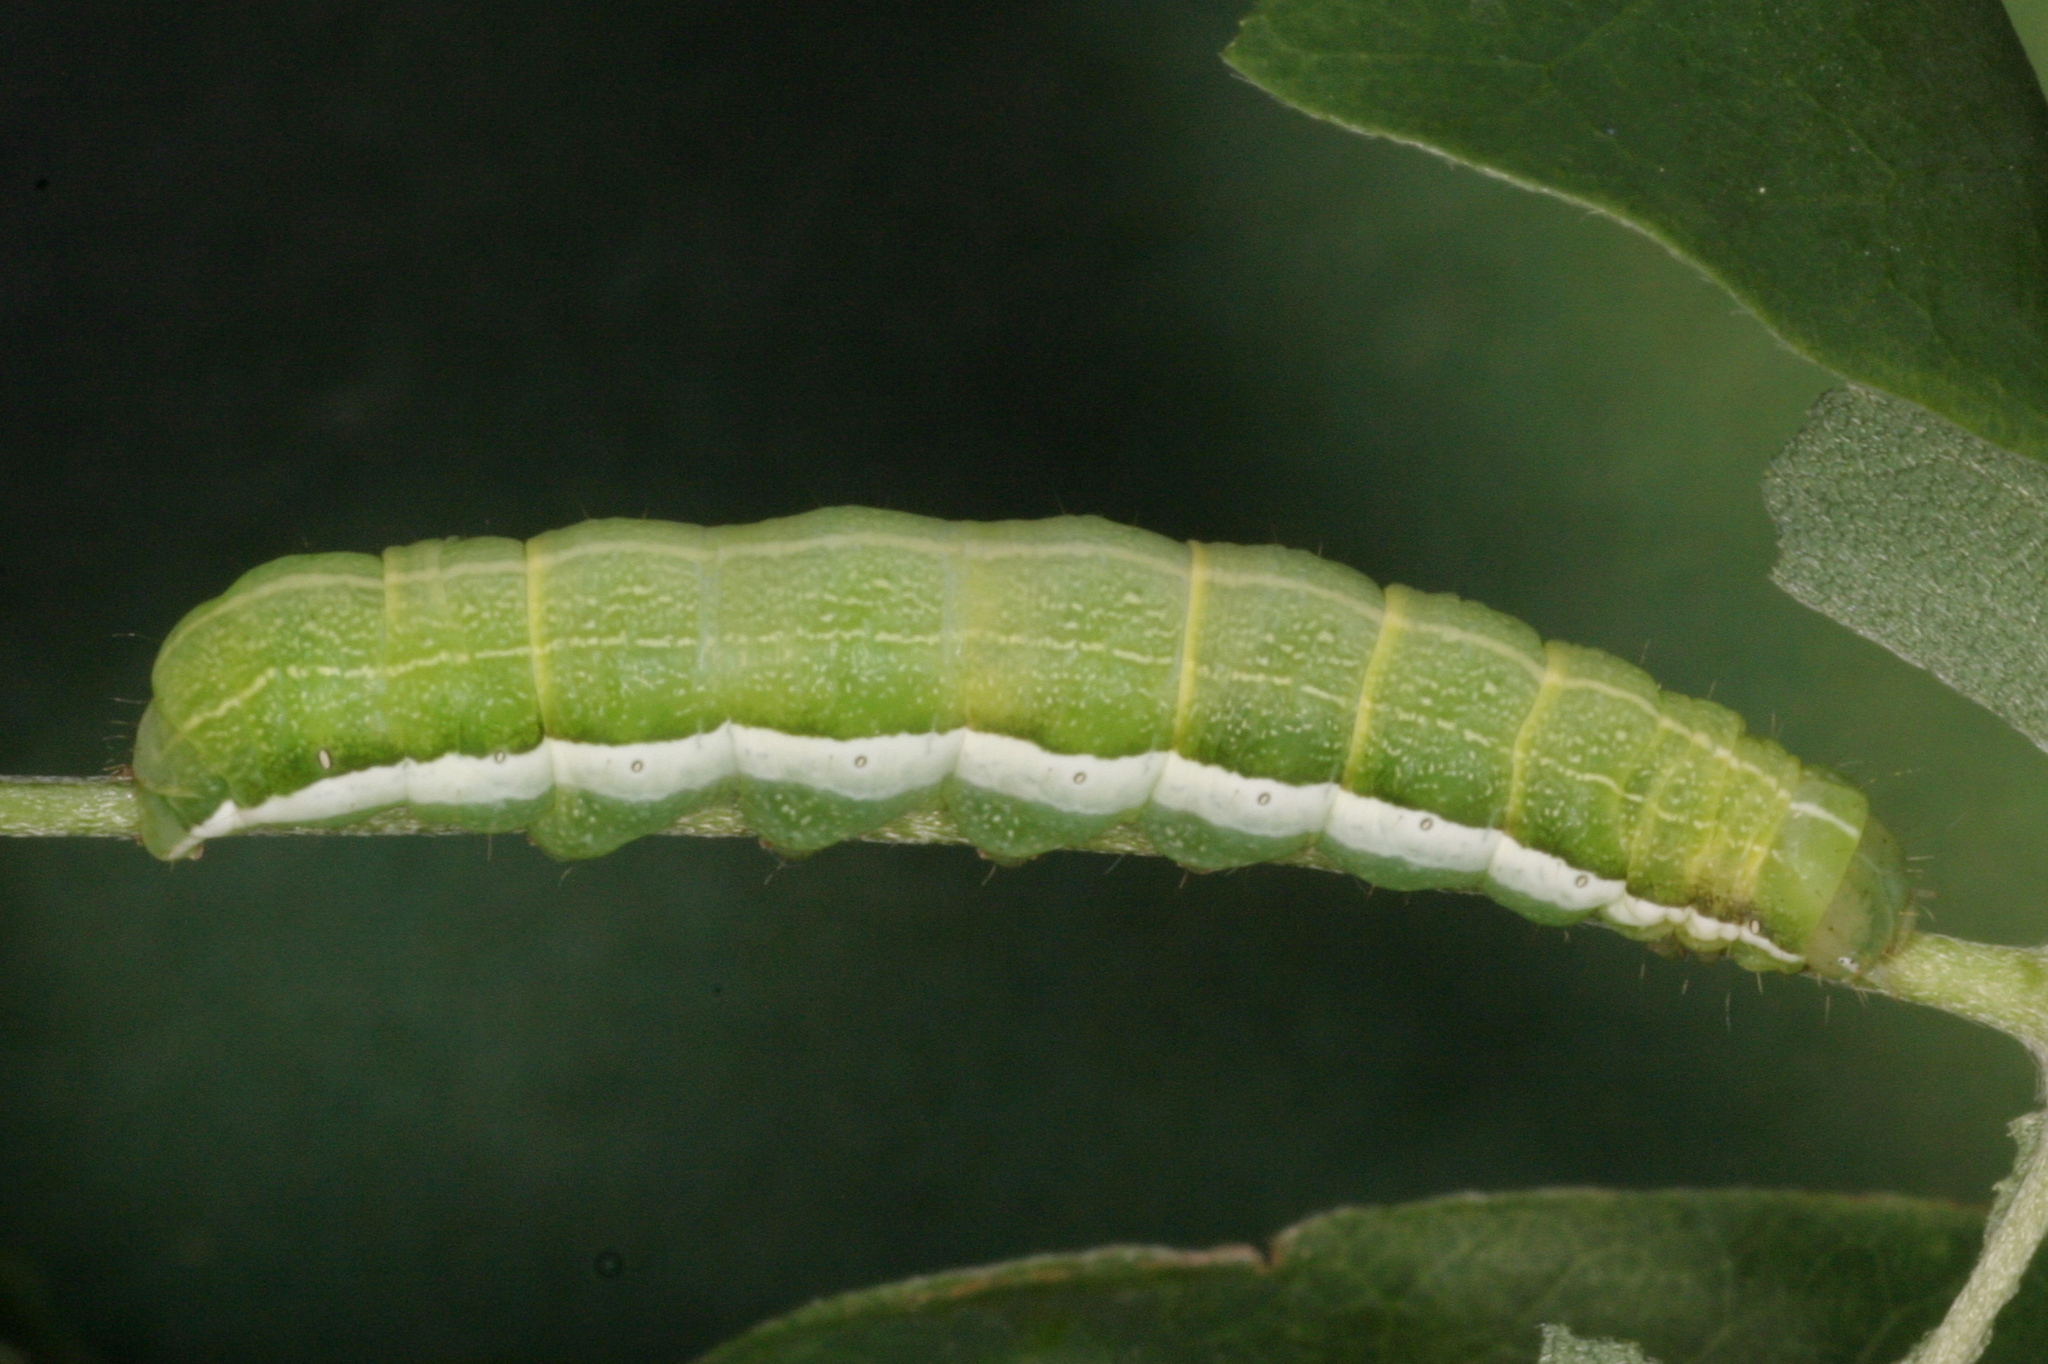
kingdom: Animalia
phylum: Arthropoda
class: Insecta
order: Lepidoptera
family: Noctuidae
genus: Orthosia
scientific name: Orthosia gothica
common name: Hebrew character
